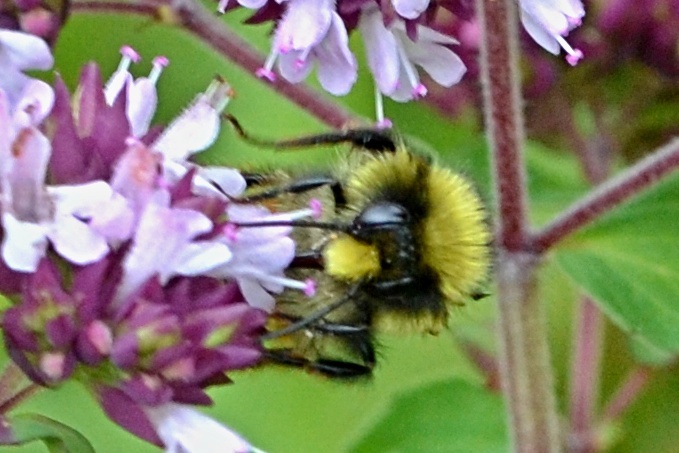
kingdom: Animalia
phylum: Arthropoda
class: Insecta
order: Hymenoptera
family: Apidae
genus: Bombus
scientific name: Bombus lapidarius
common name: Large red-tailed humble-bee
